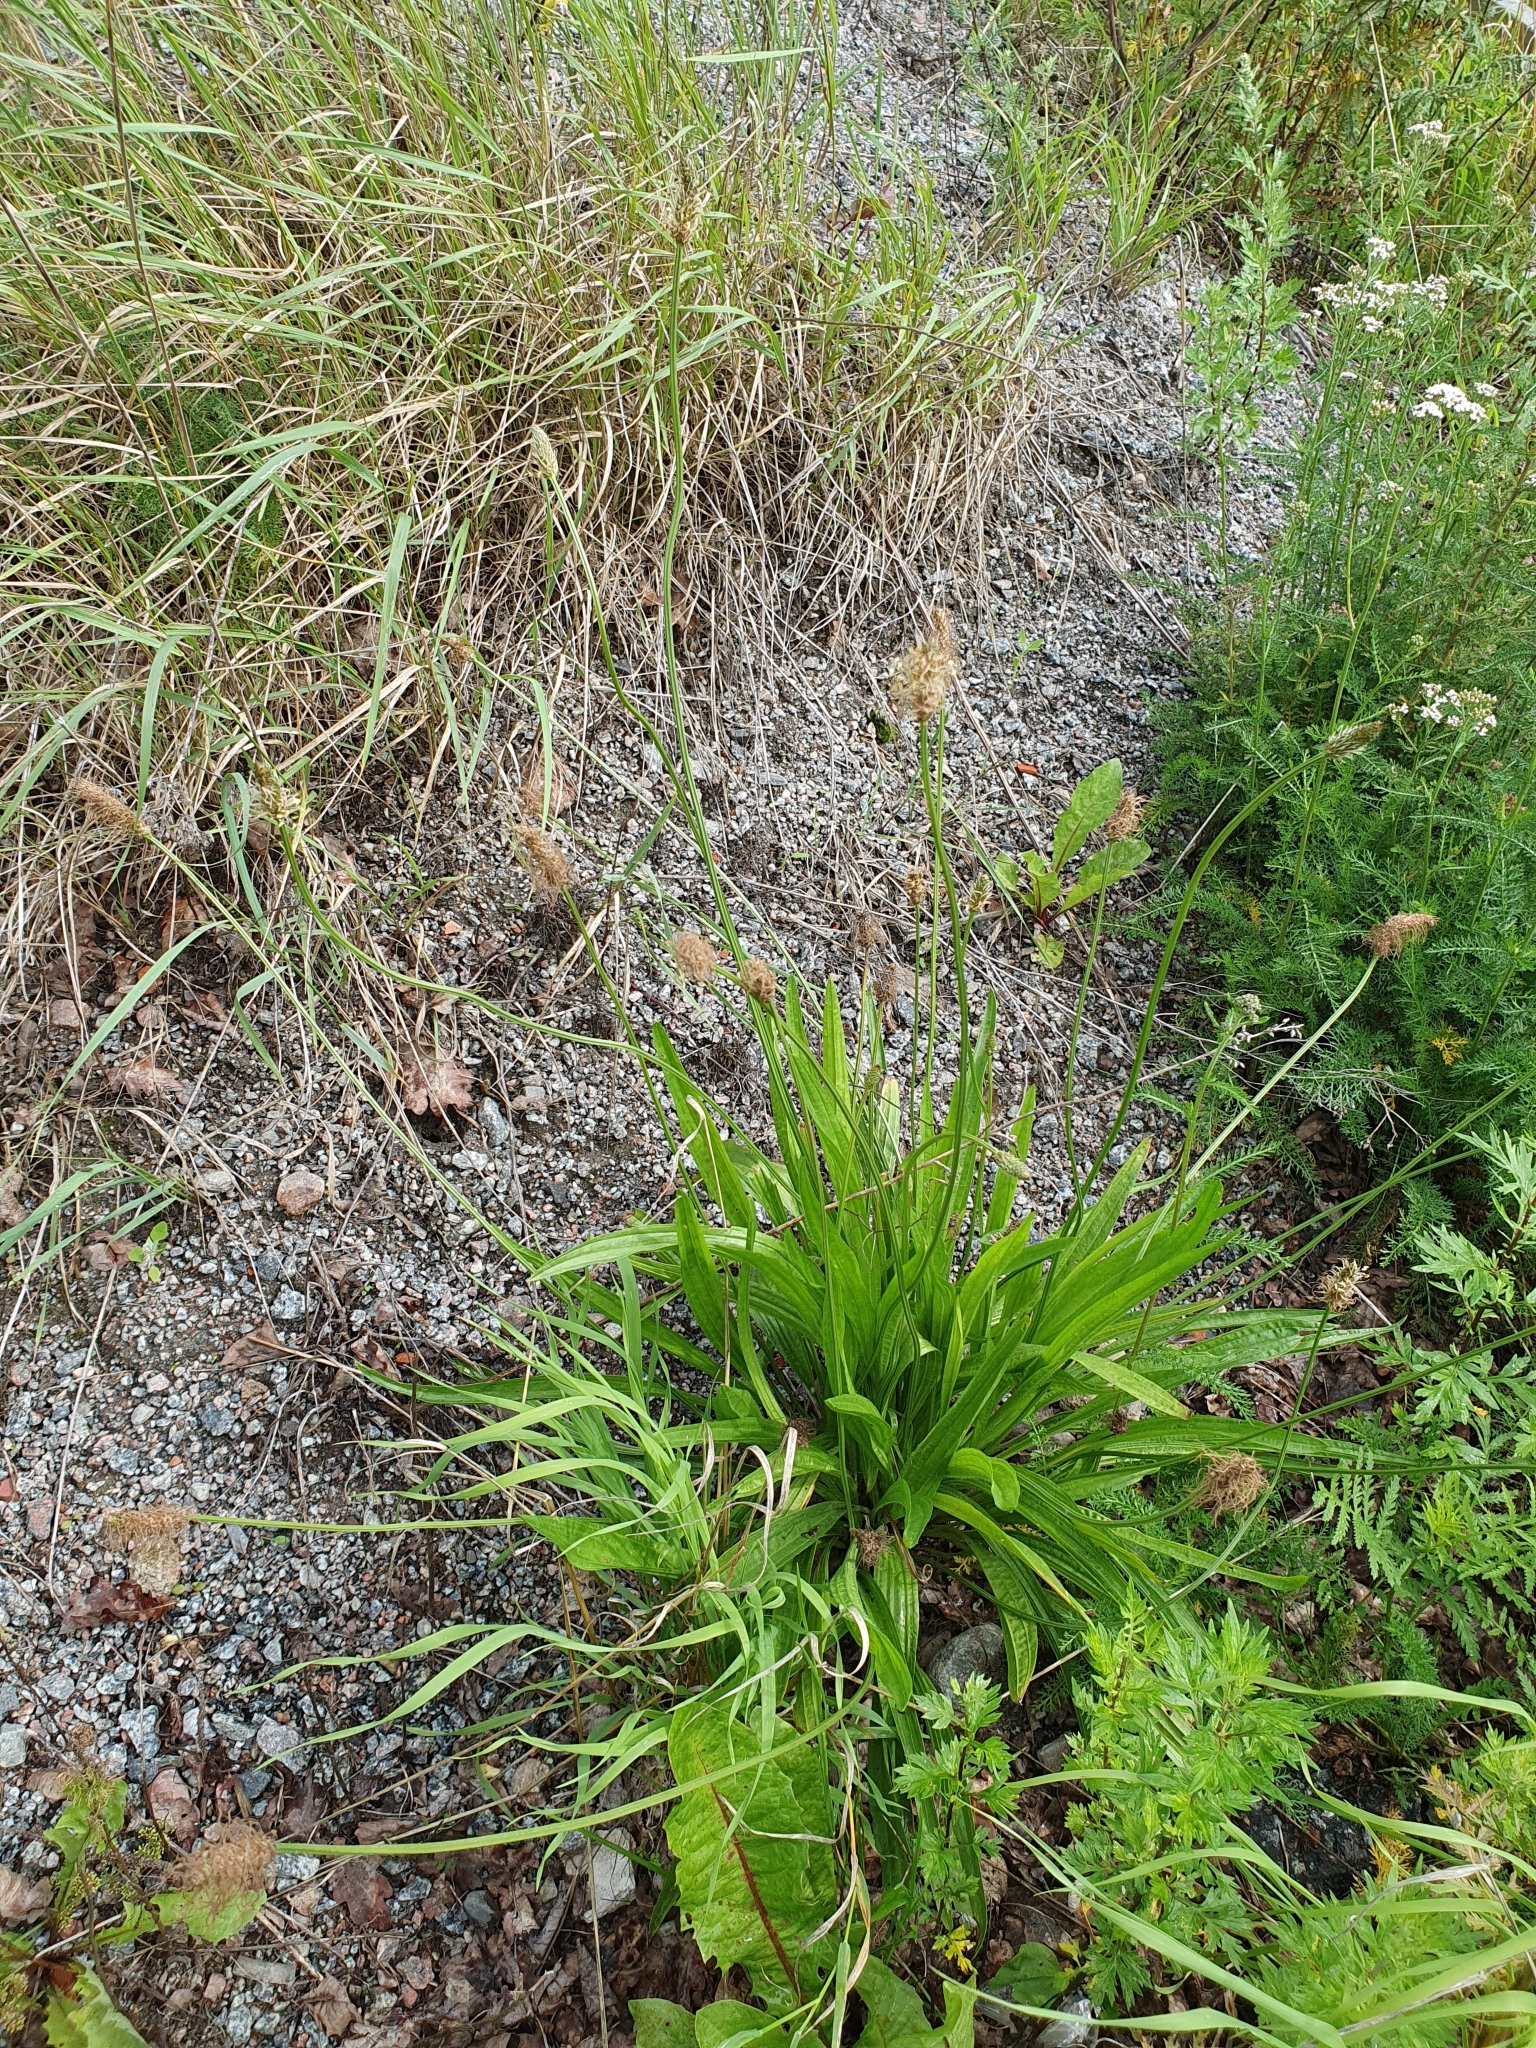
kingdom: Plantae
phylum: Tracheophyta
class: Magnoliopsida
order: Lamiales
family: Plantaginaceae
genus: Plantago
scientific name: Plantago lanceolata
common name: Ribwort plantain
